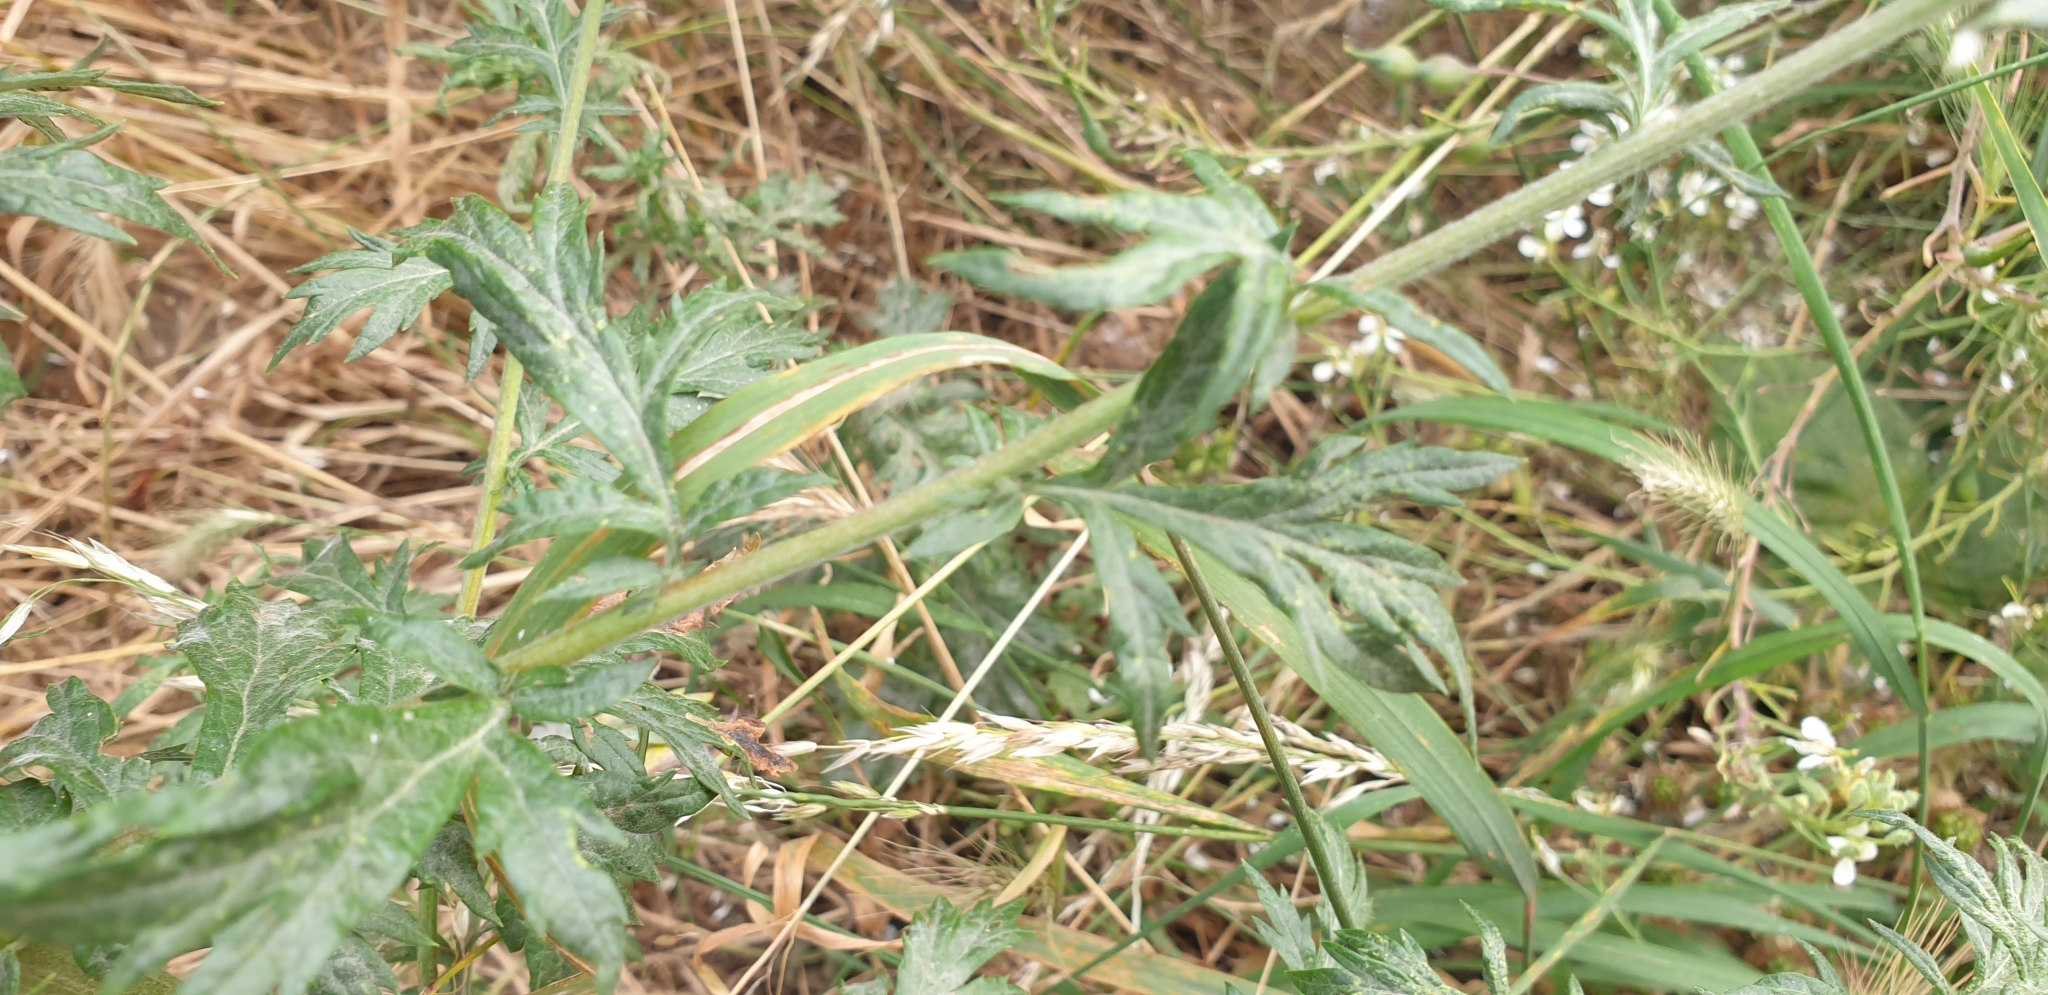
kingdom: Plantae
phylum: Tracheophyta
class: Magnoliopsida
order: Asterales
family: Asteraceae
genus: Artemisia
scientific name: Artemisia vulgaris
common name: Mugwort
